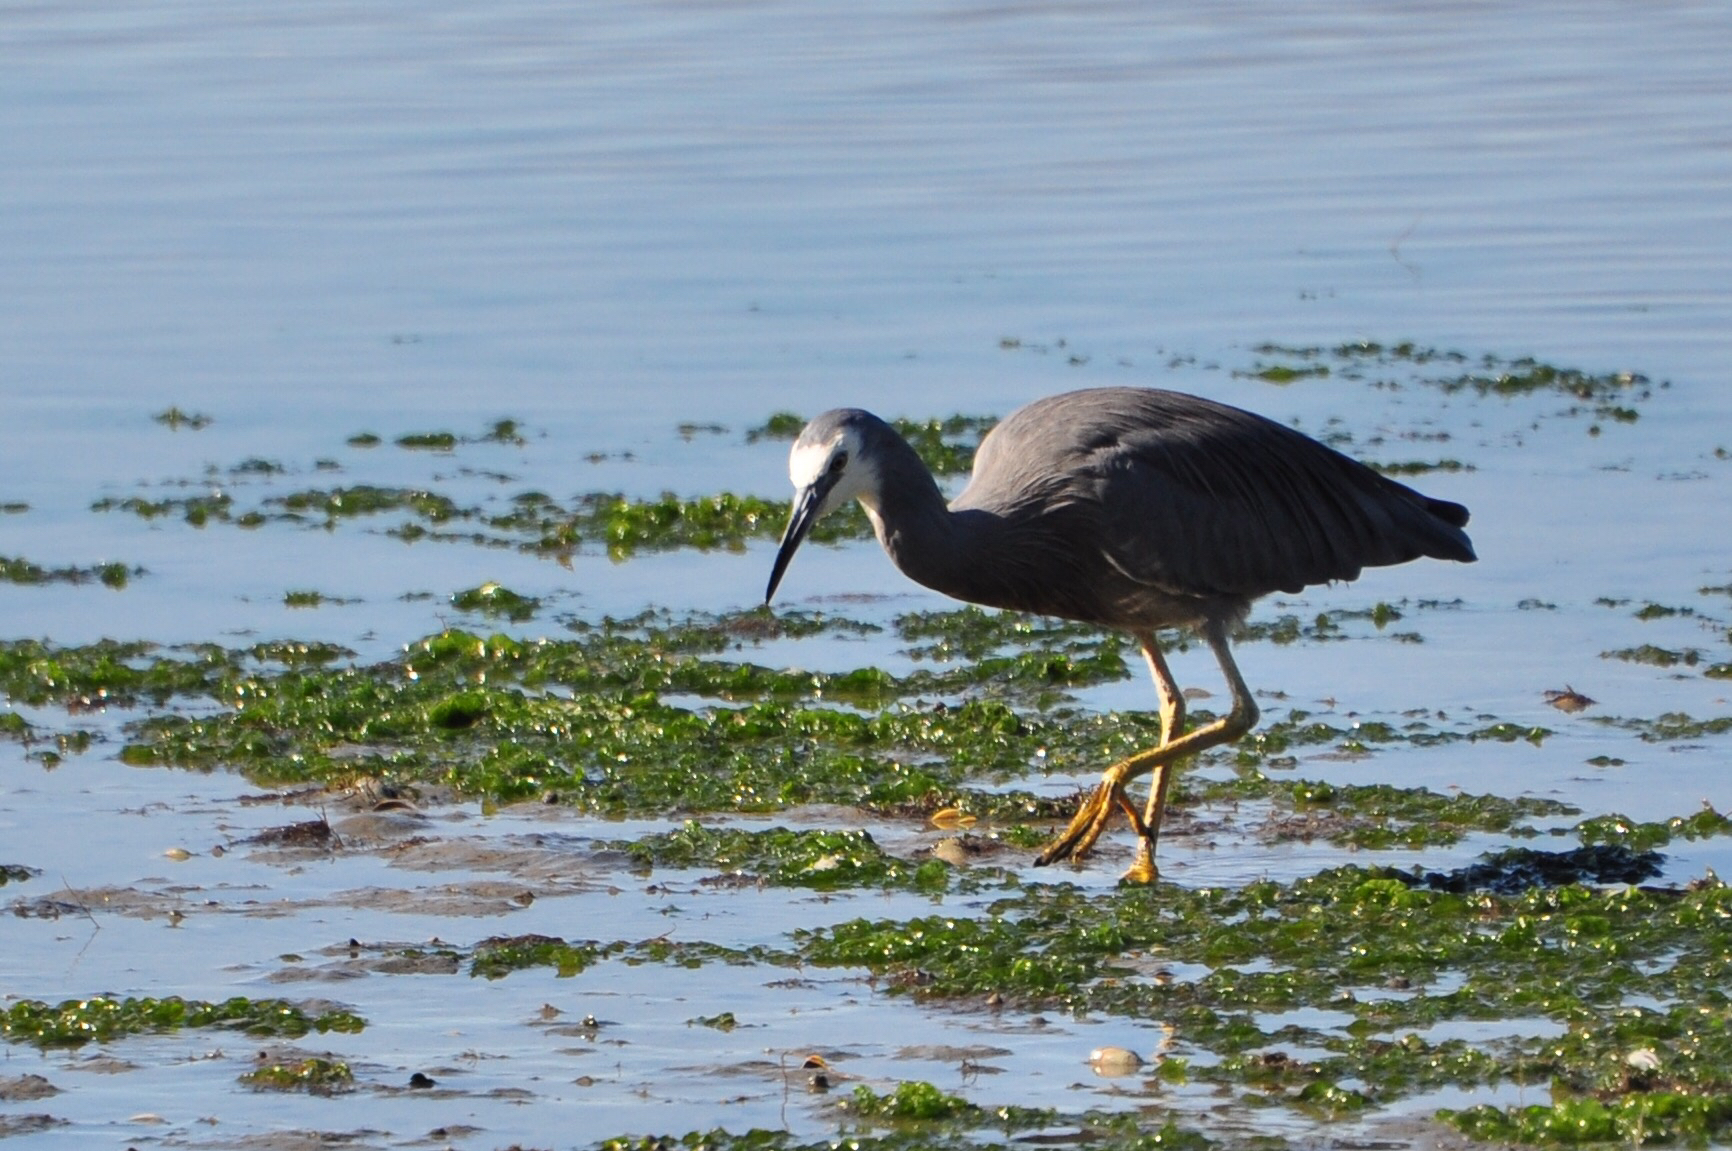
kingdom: Animalia
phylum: Chordata
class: Aves
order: Pelecaniformes
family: Ardeidae
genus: Egretta
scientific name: Egretta novaehollandiae
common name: White-faced heron
